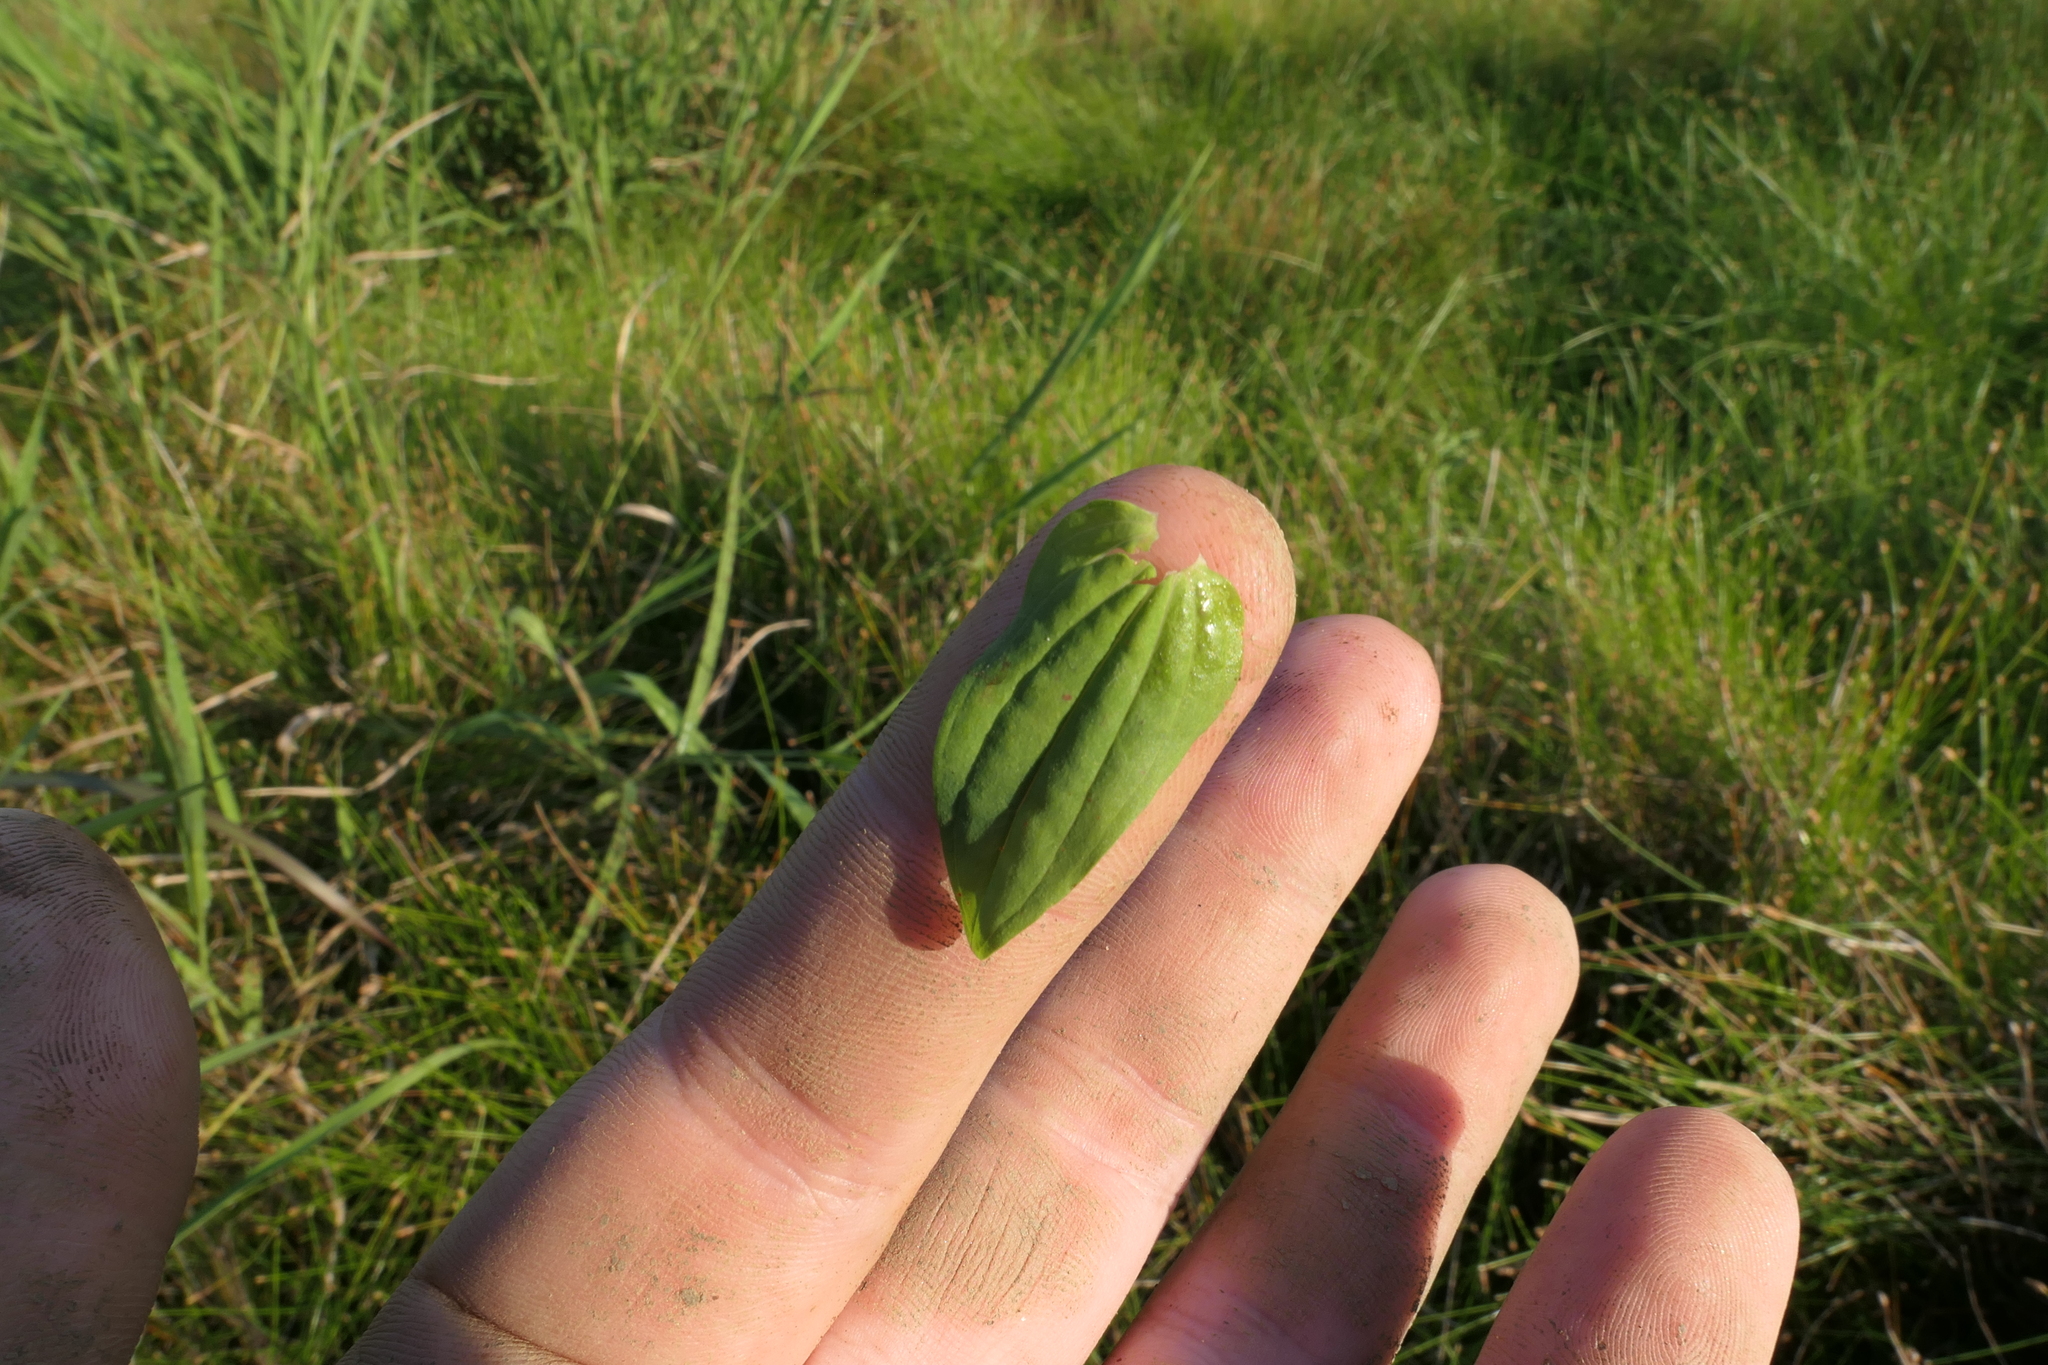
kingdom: Plantae
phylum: Tracheophyta
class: Magnoliopsida
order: Malpighiales
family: Hypericaceae
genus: Hypericum
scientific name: Hypericum mutilum
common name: Dwarf st. john's-wort
